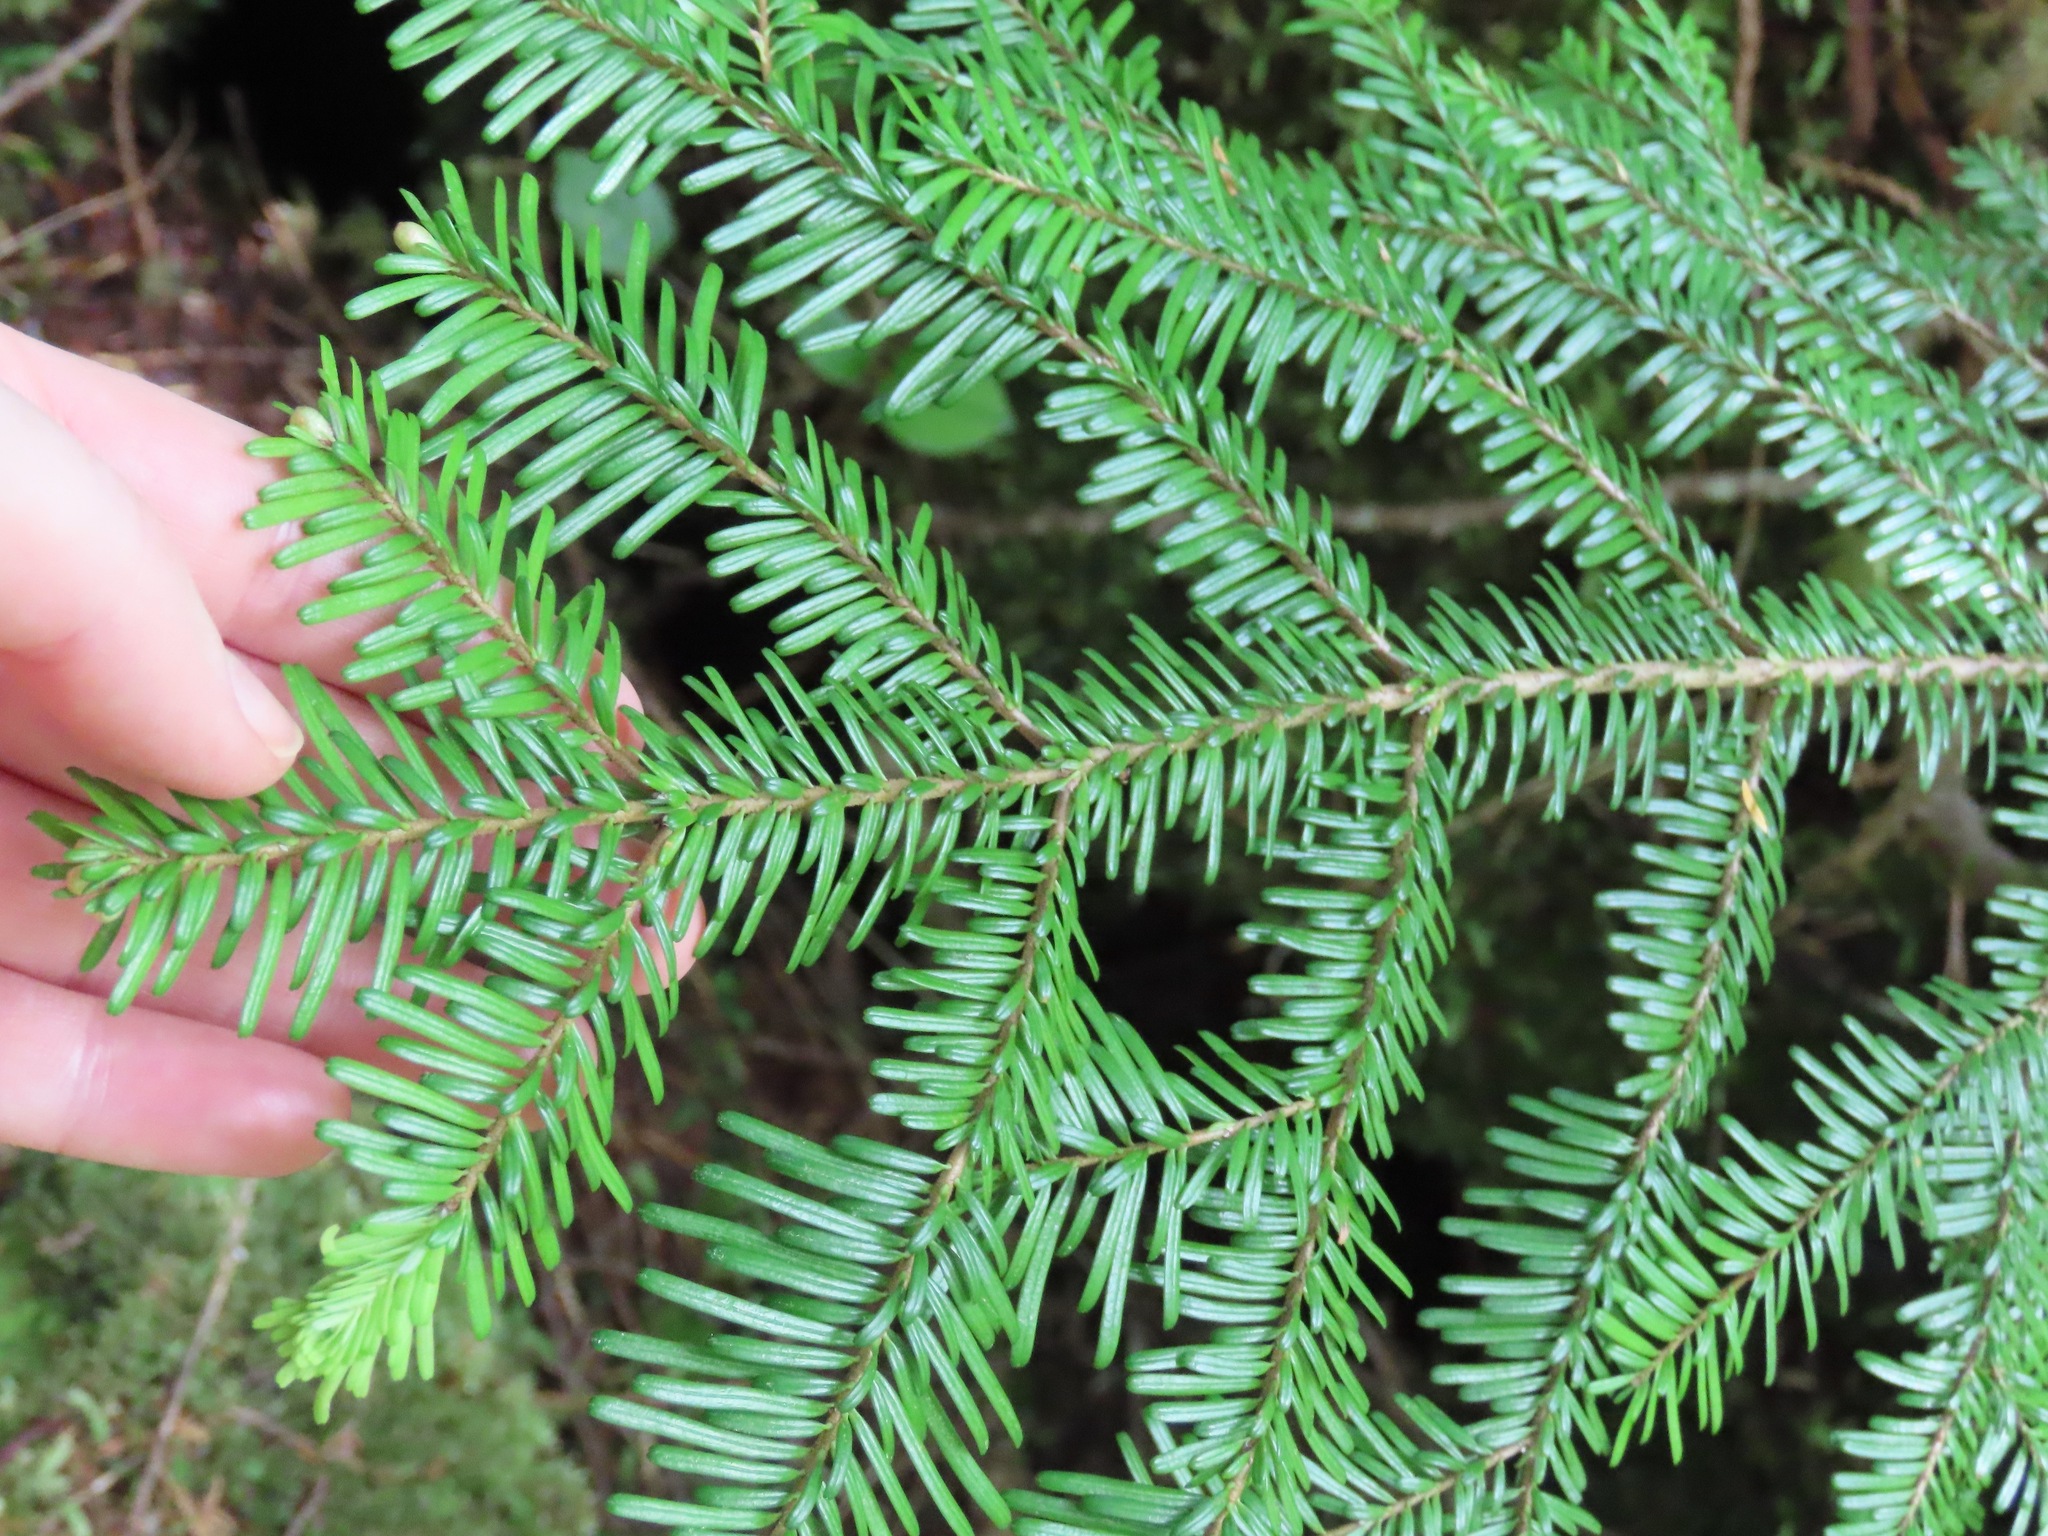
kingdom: Plantae
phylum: Tracheophyta
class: Pinopsida
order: Pinales
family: Pinaceae
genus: Abies
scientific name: Abies amabilis
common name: Pacific silver fir
